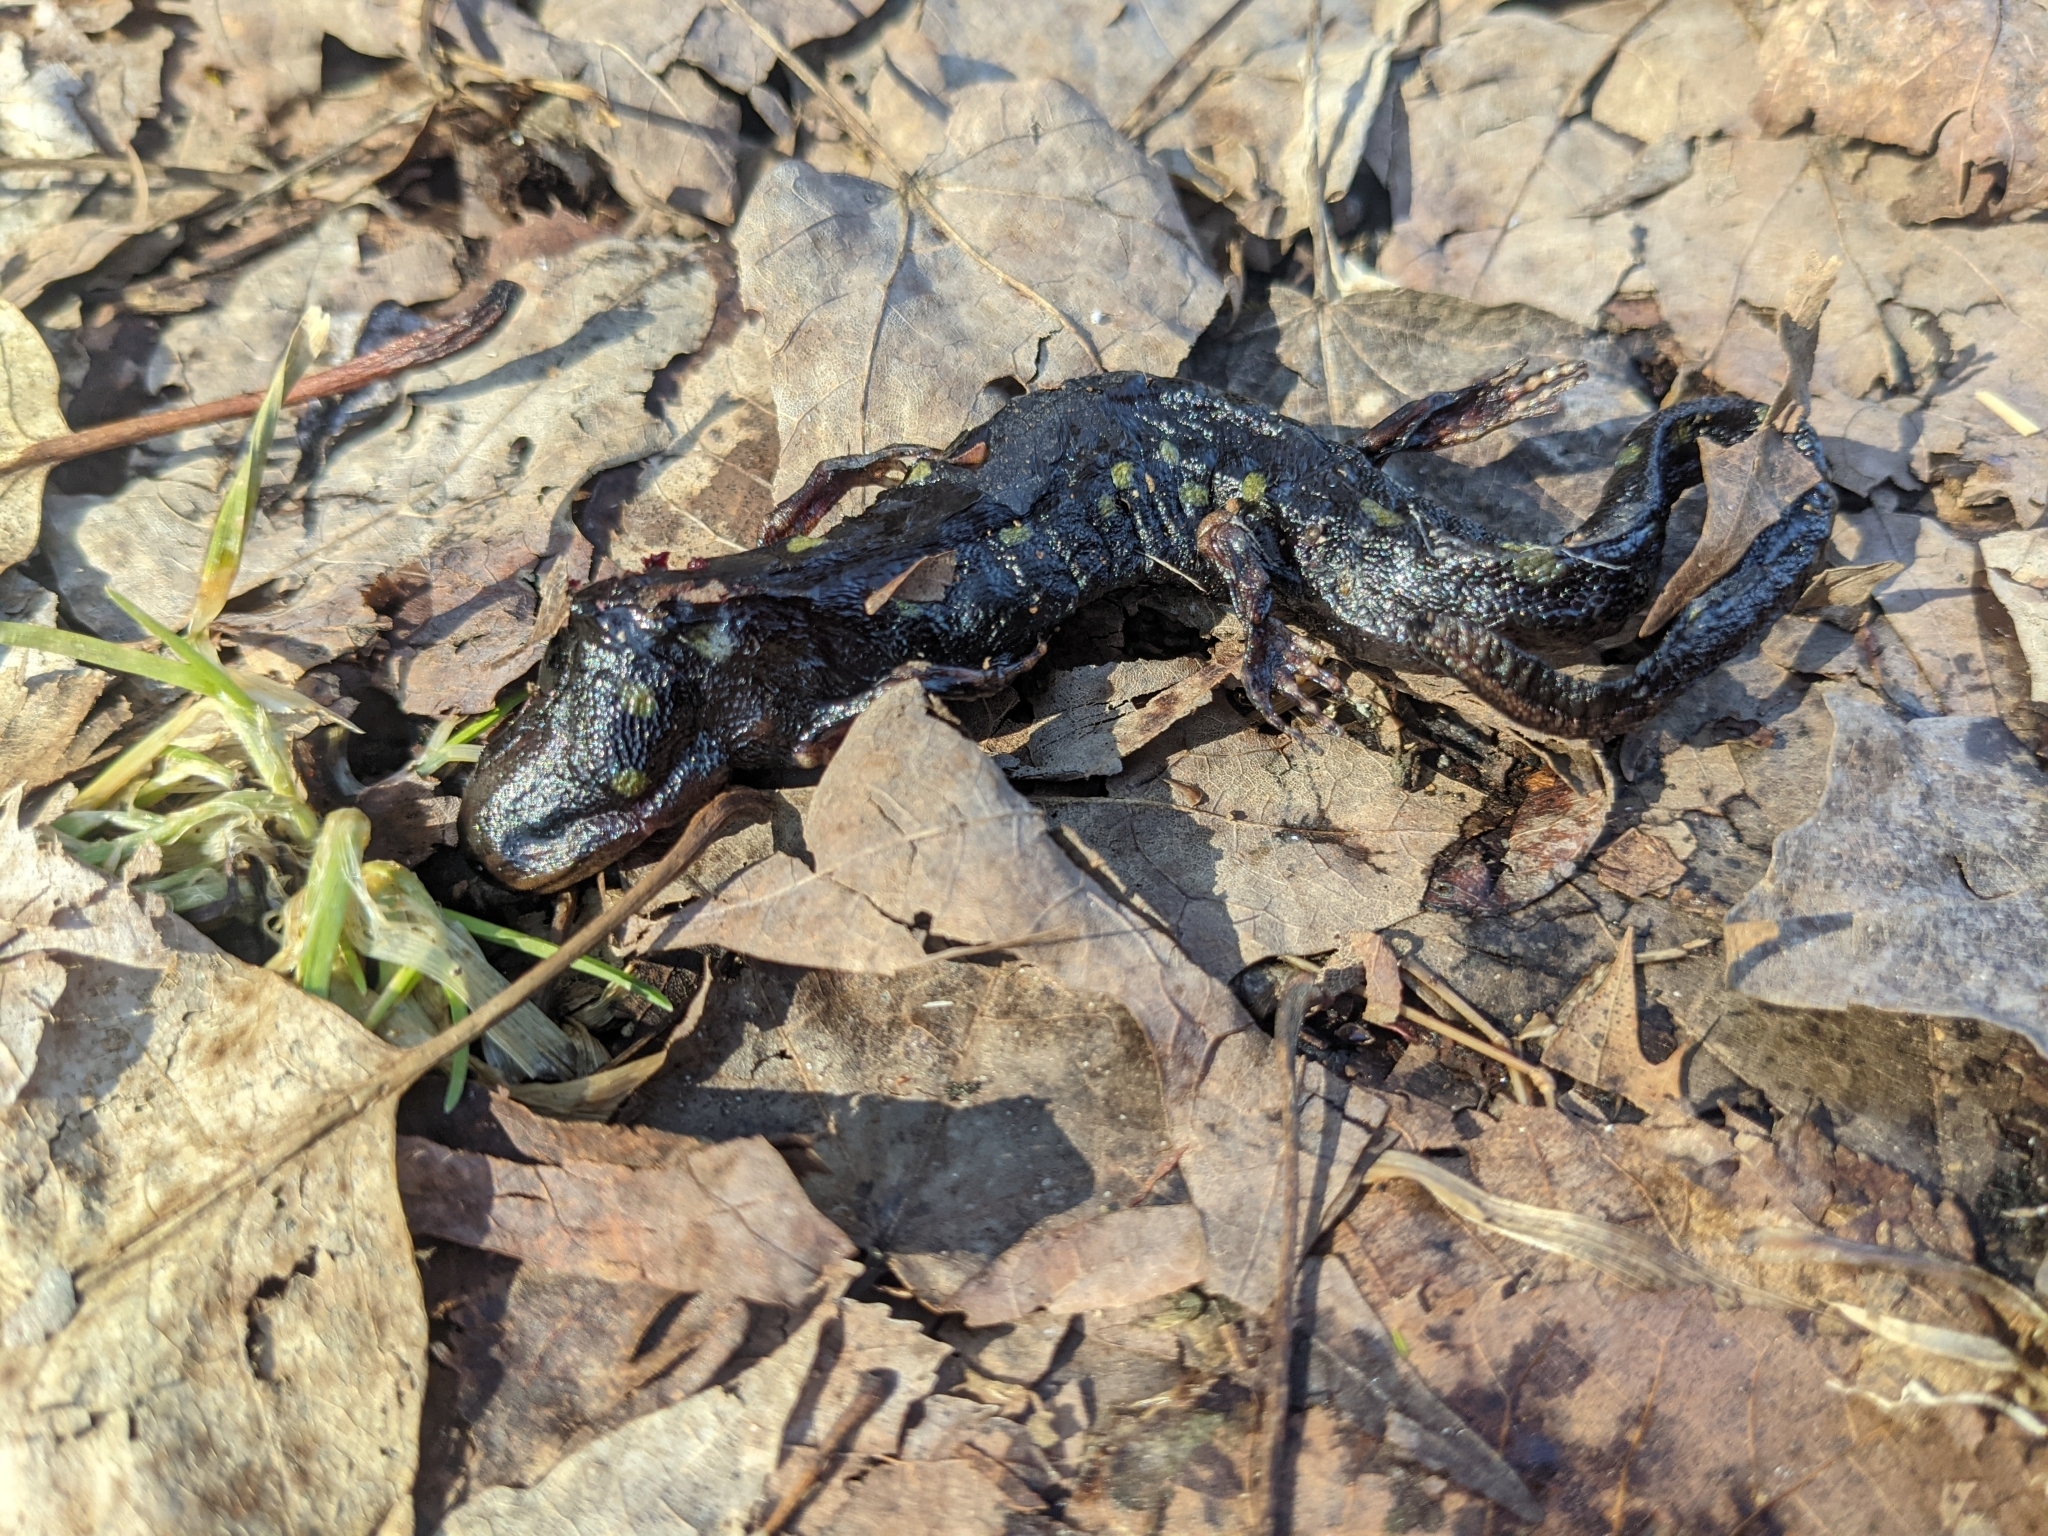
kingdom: Animalia
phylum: Chordata
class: Amphibia
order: Caudata
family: Ambystomatidae
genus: Ambystoma
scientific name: Ambystoma maculatum
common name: Spotted salamander
